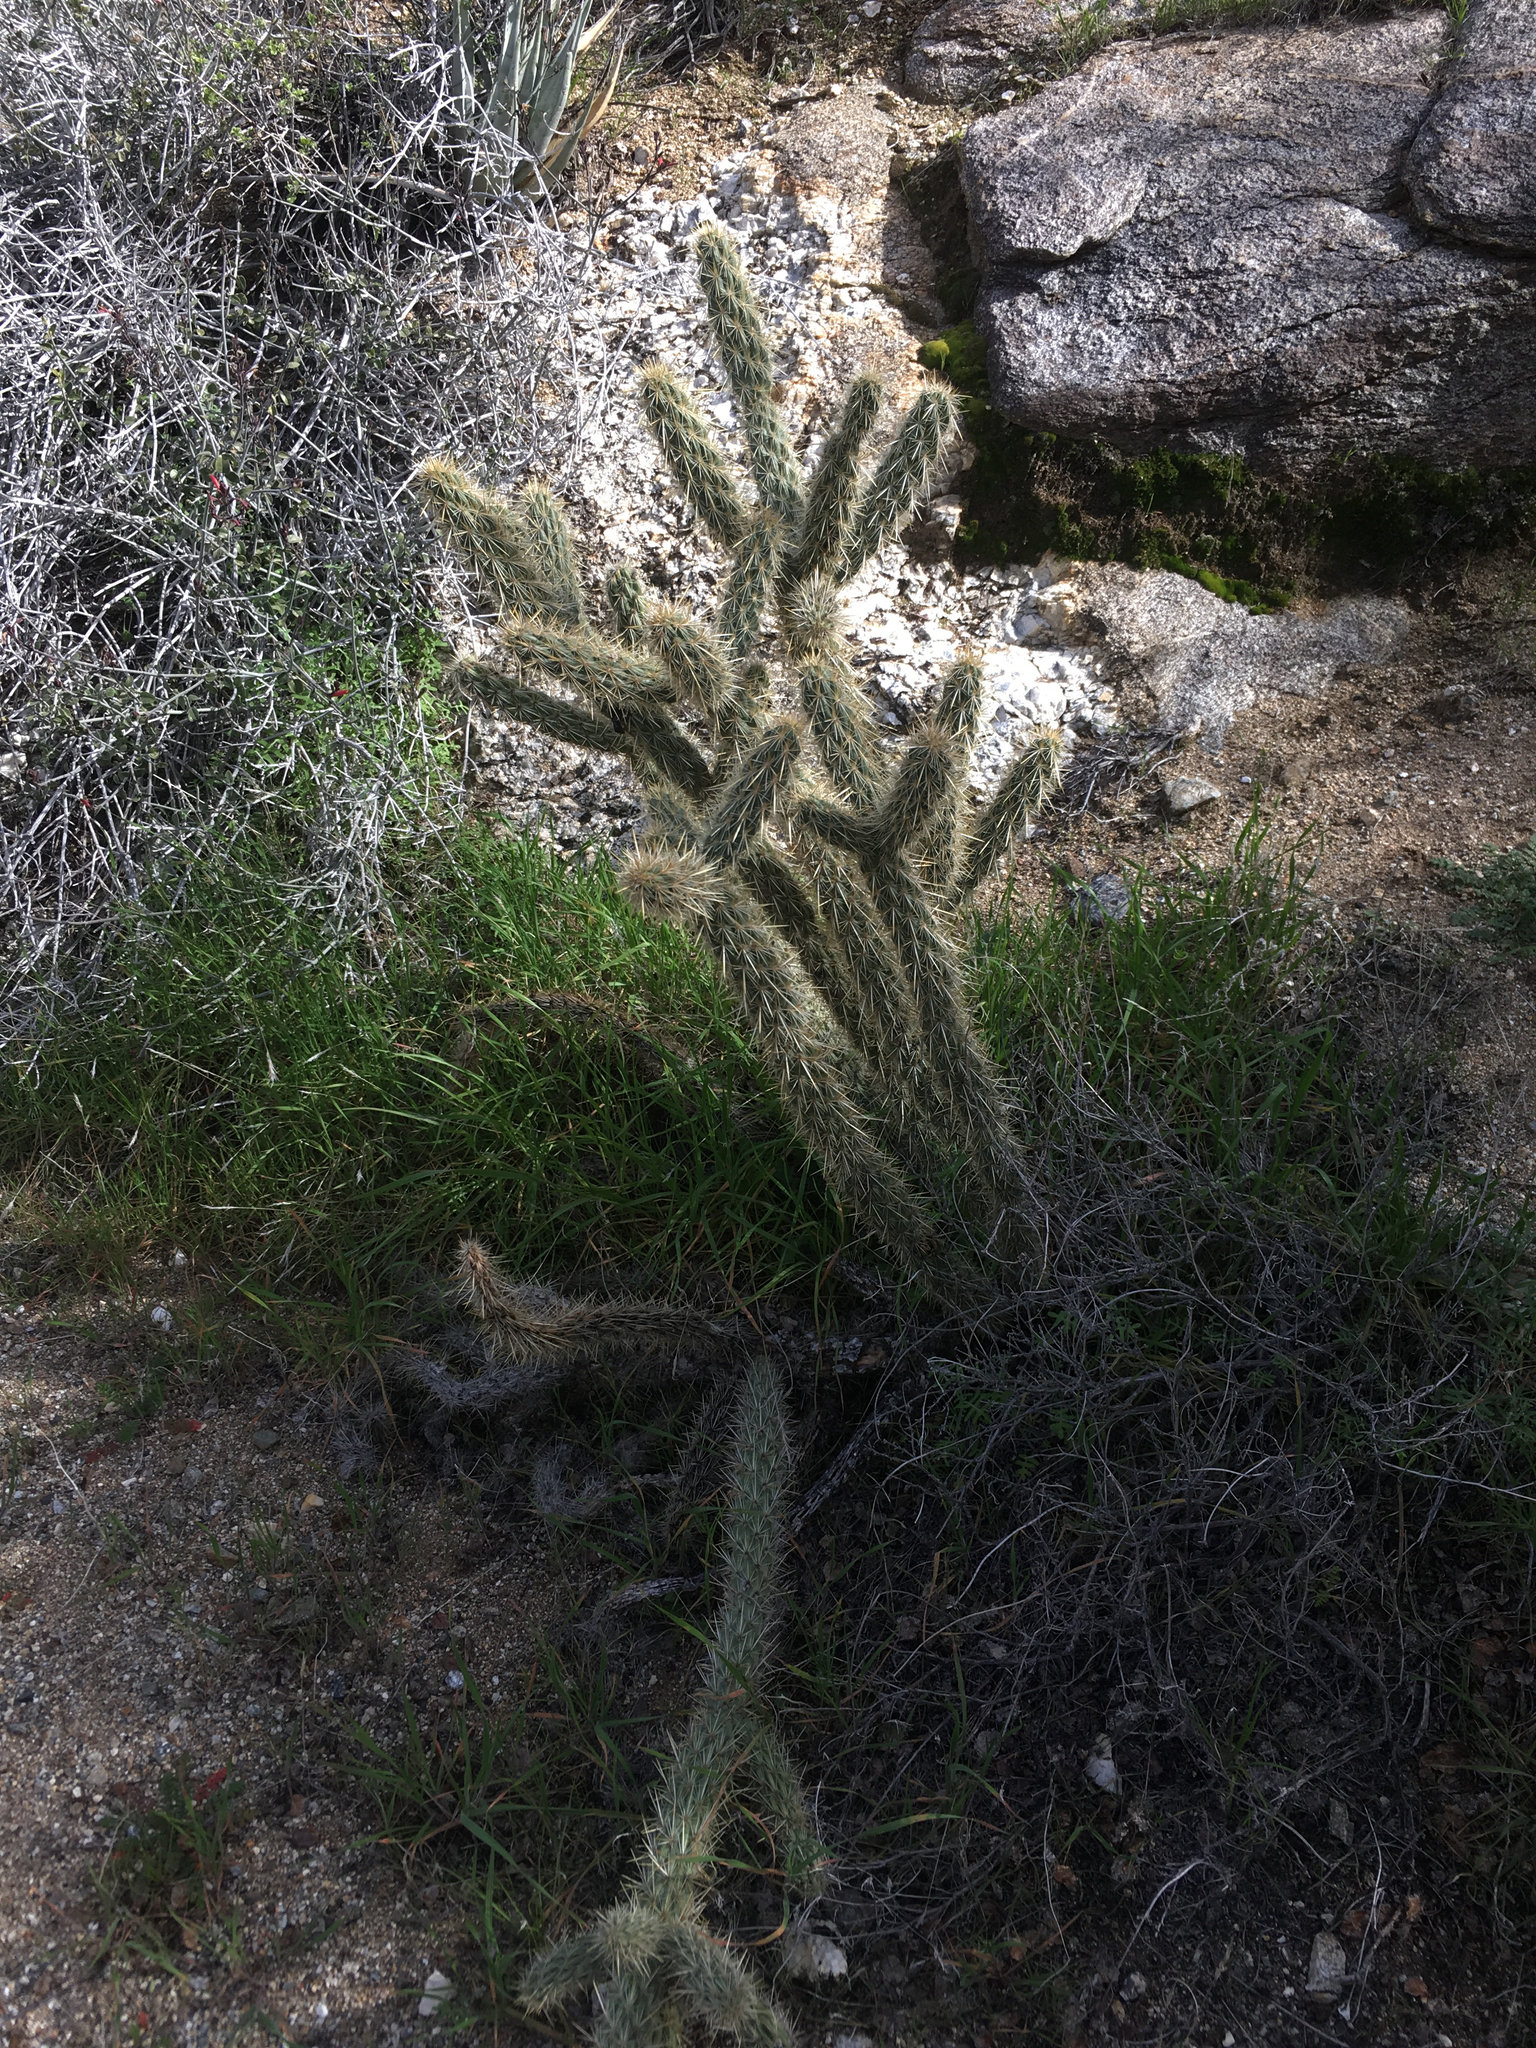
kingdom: Plantae
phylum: Tracheophyta
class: Magnoliopsida
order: Caryophyllales
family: Cactaceae
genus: Cylindropuntia
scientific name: Cylindropuntia ganderi
